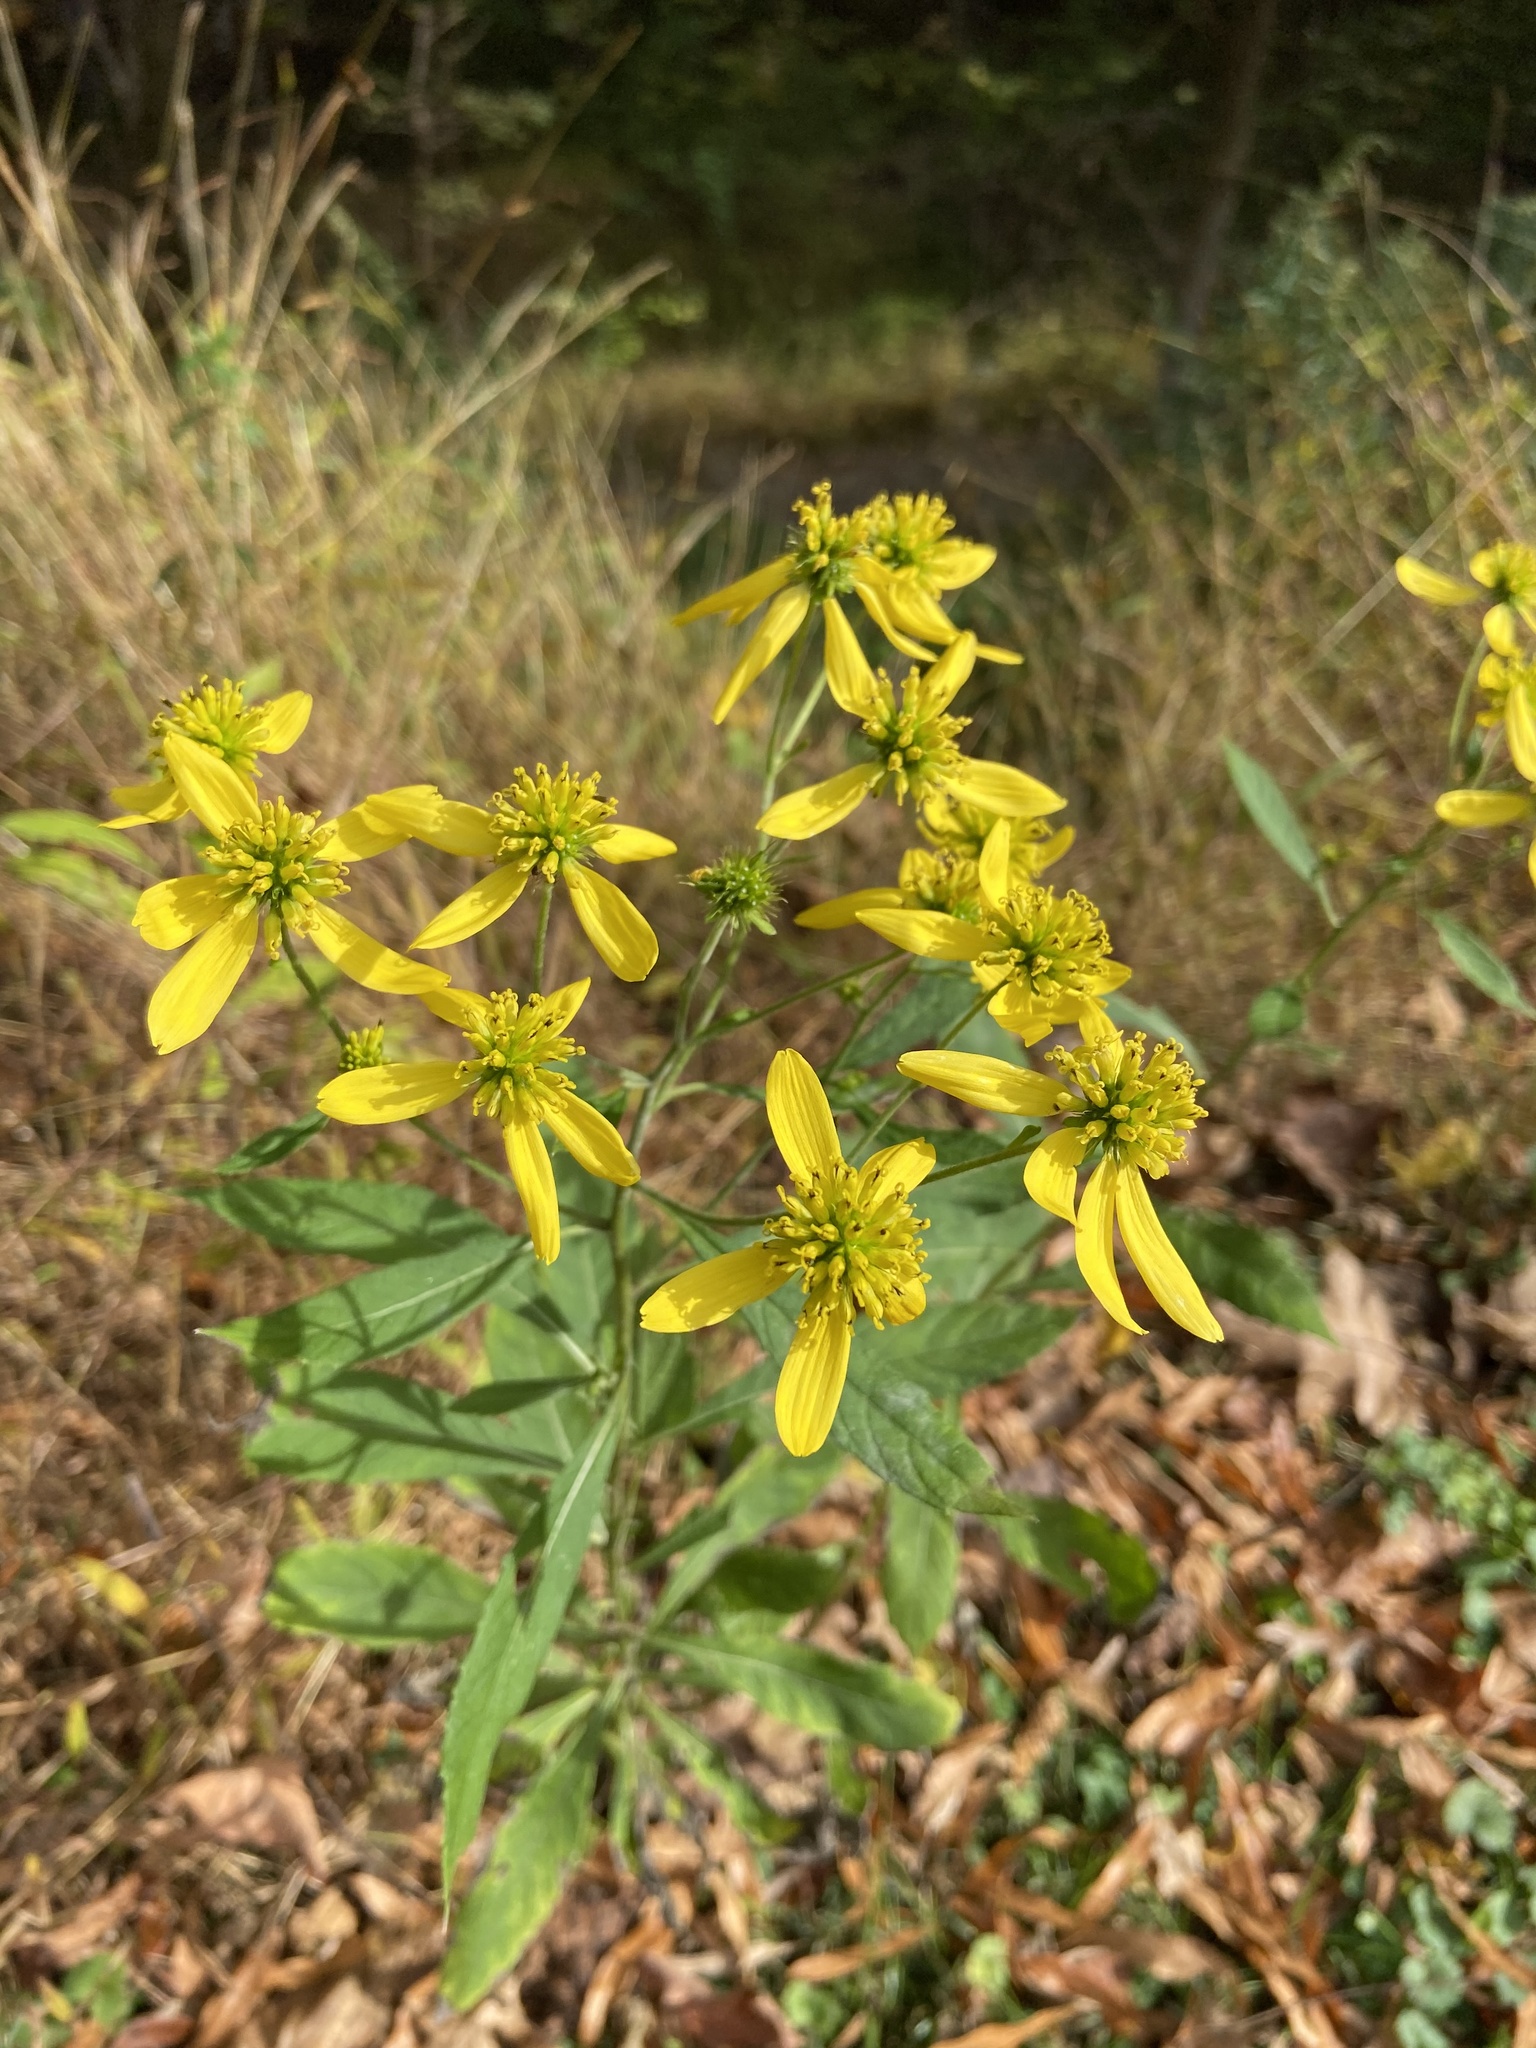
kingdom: Plantae
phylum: Tracheophyta
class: Magnoliopsida
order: Asterales
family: Asteraceae
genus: Verbesina
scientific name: Verbesina alternifolia
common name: Wingstem
